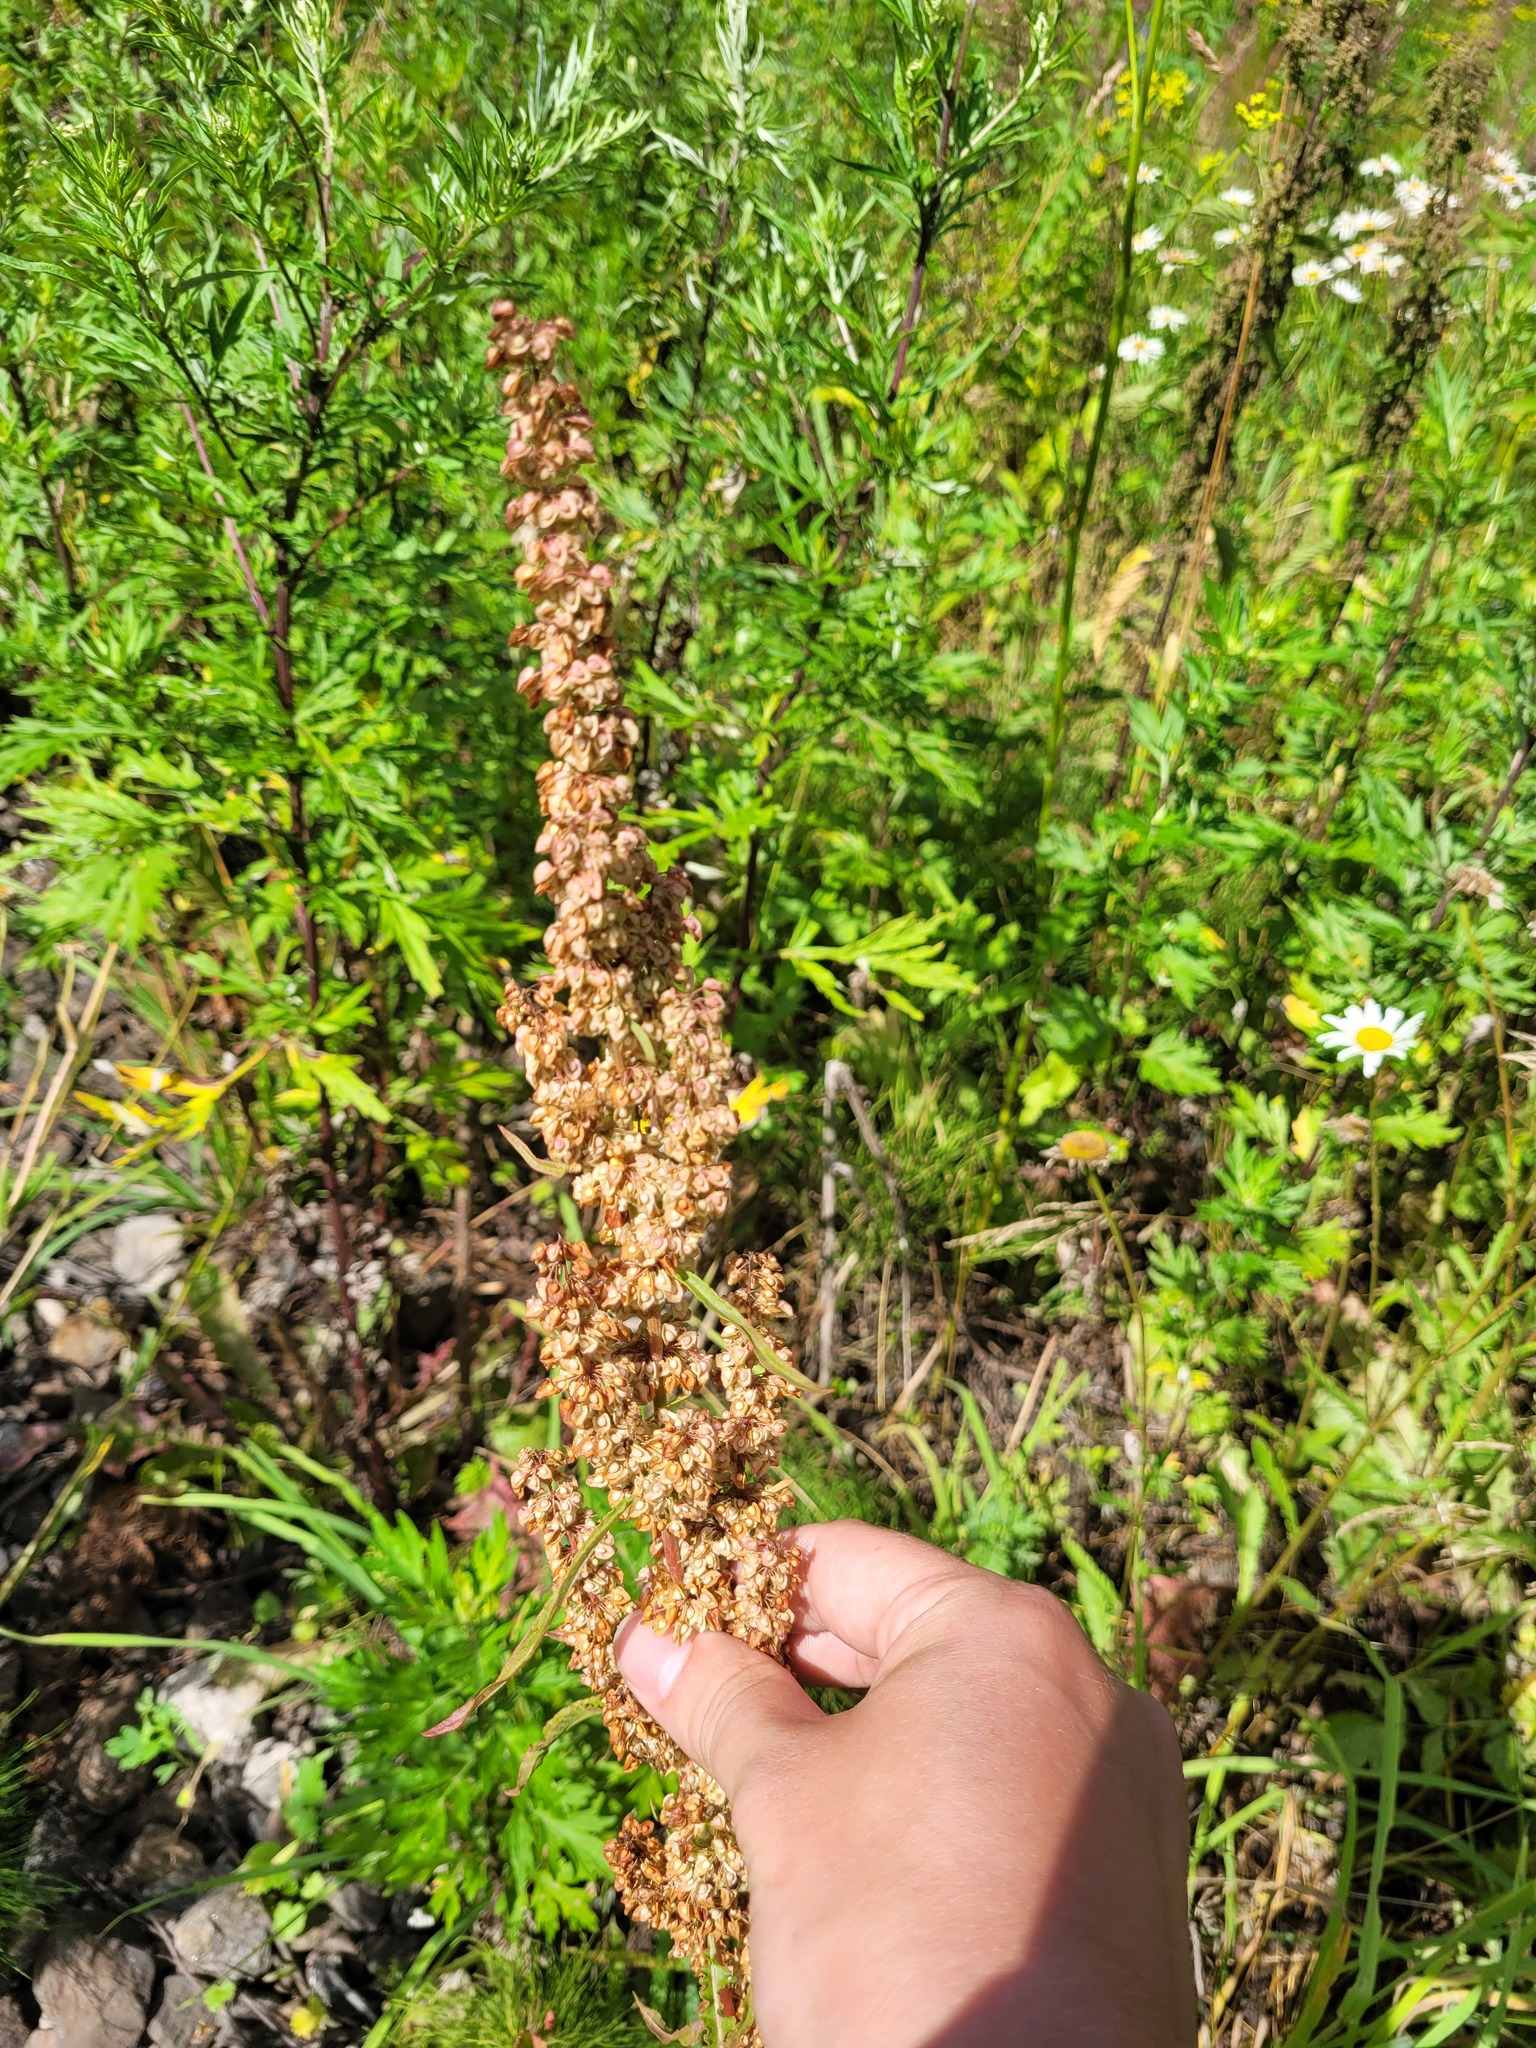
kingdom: Plantae
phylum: Tracheophyta
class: Magnoliopsida
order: Caryophyllales
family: Polygonaceae
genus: Rumex
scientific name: Rumex crispus
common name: Curled dock
